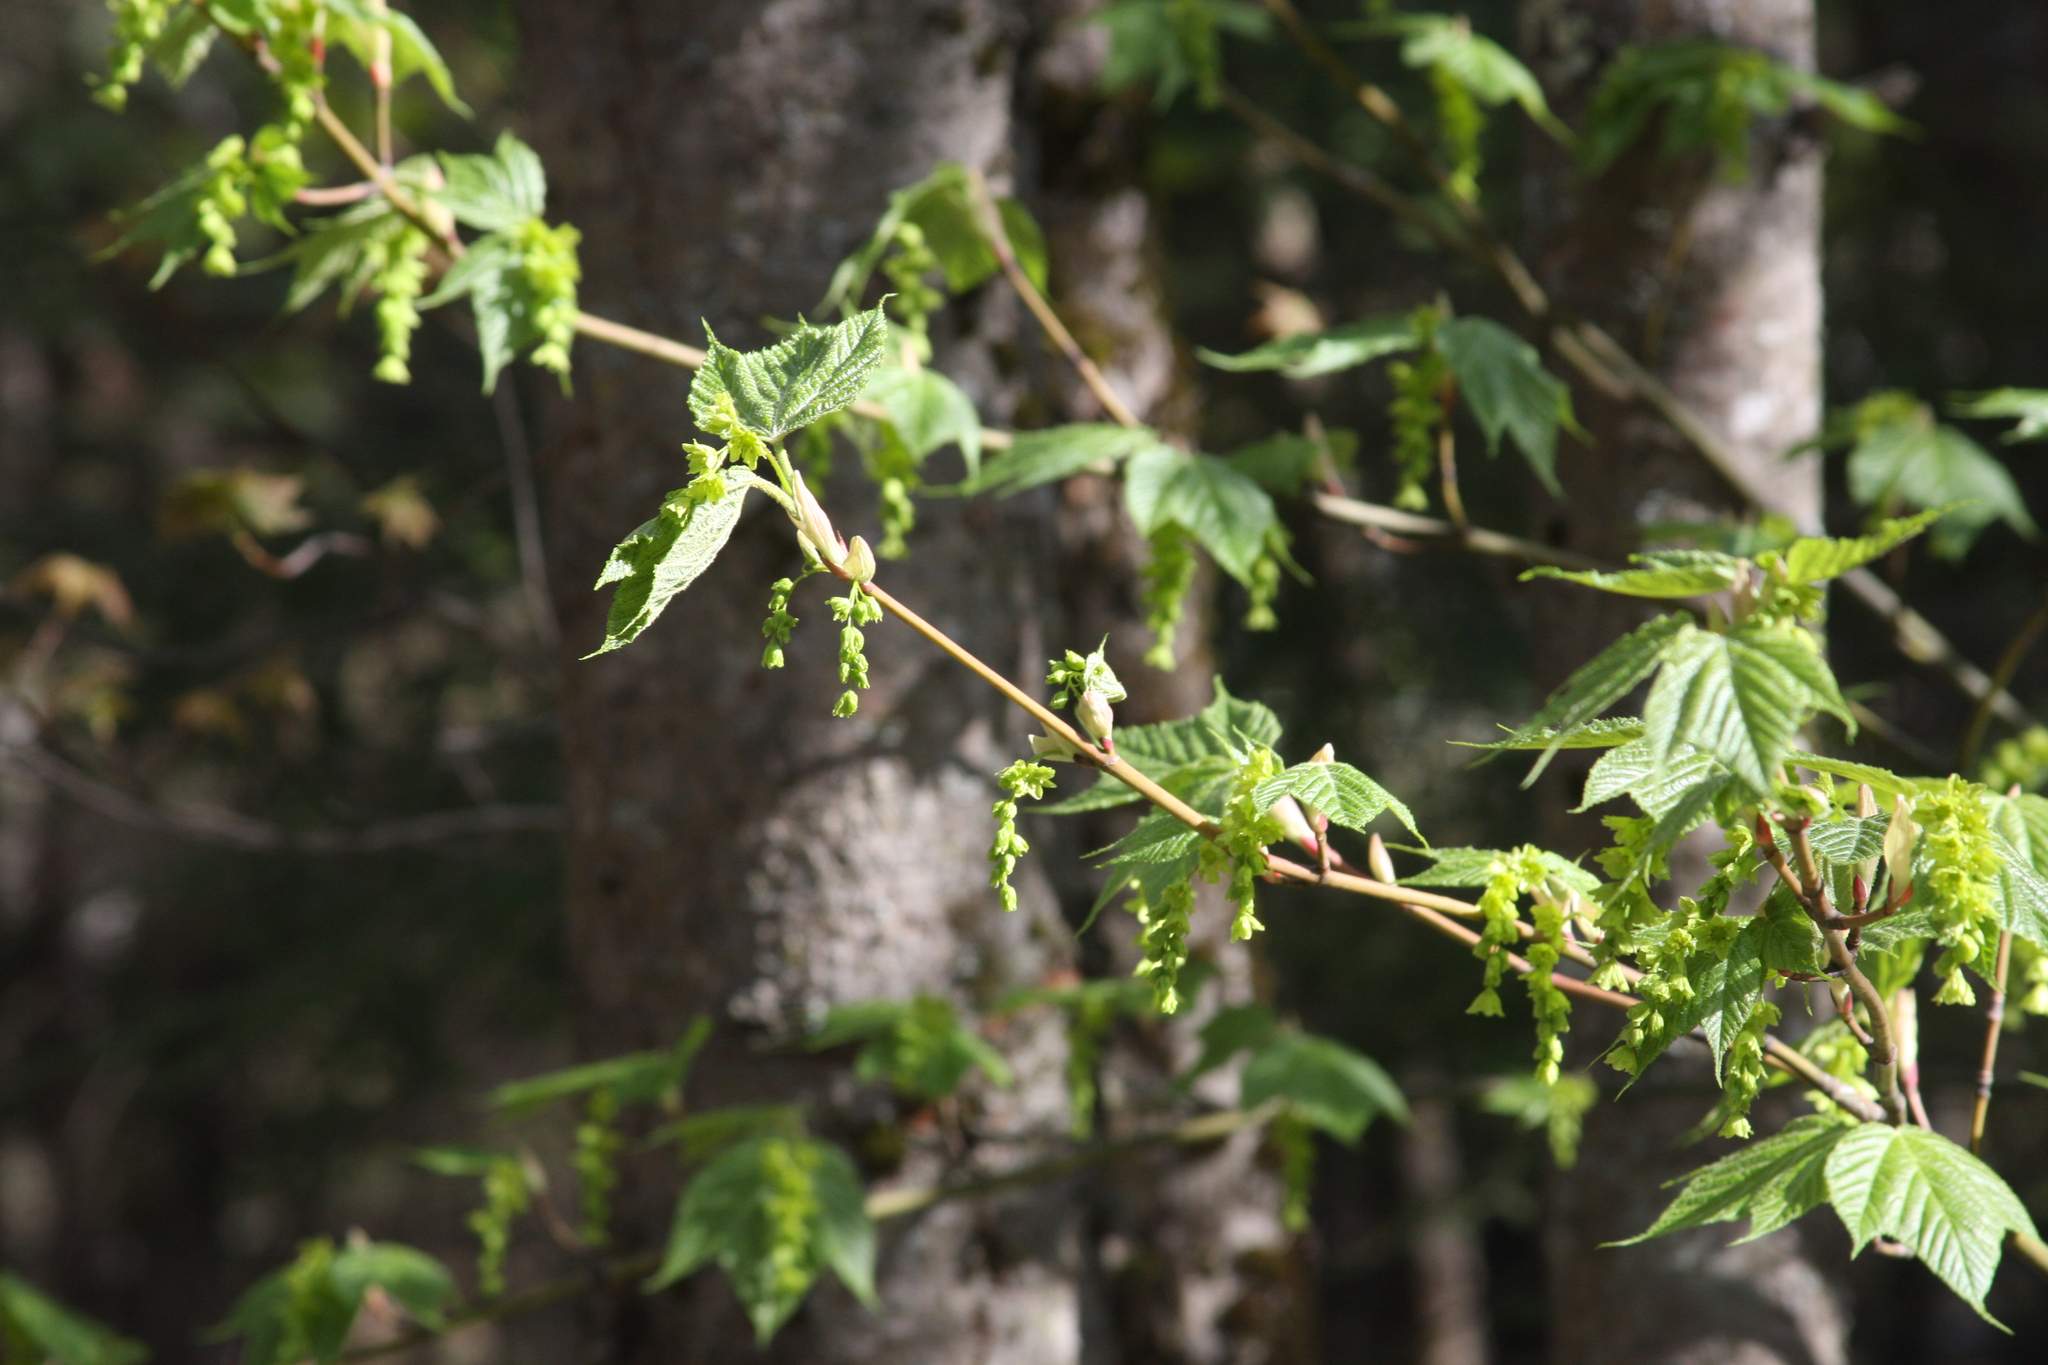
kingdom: Plantae
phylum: Tracheophyta
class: Magnoliopsida
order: Sapindales
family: Sapindaceae
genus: Acer
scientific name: Acer pensylvanicum
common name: Moosewood
